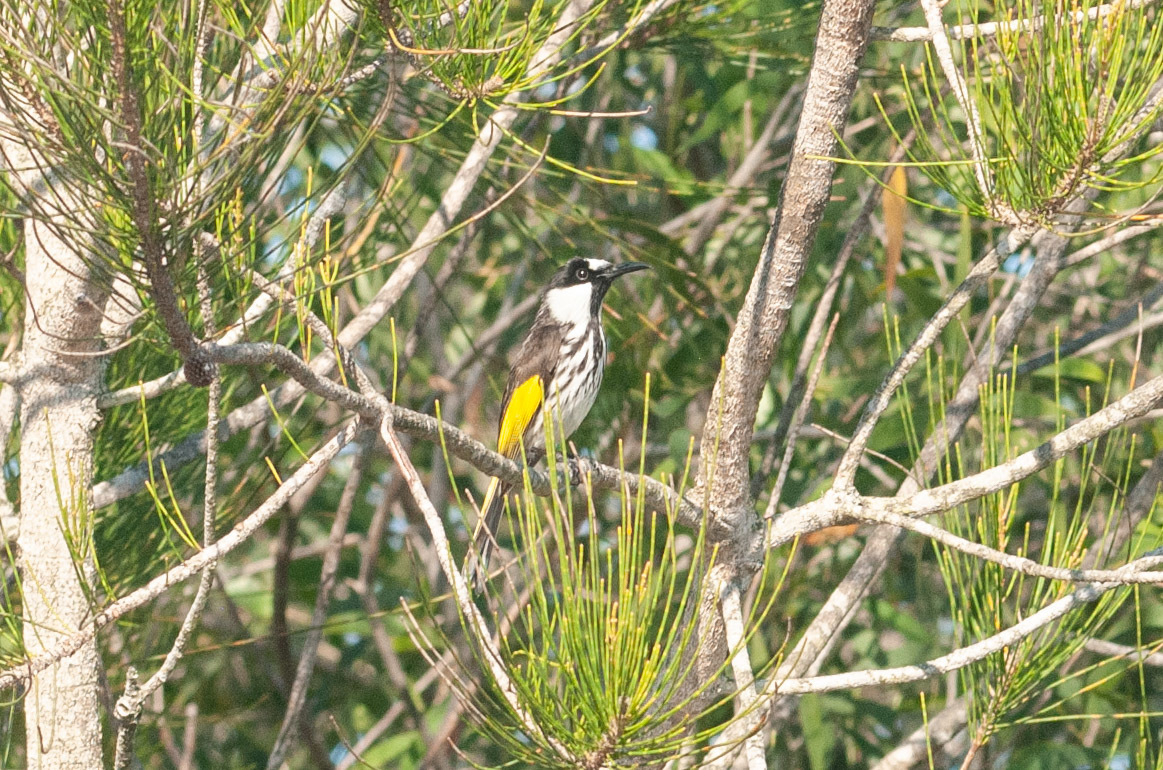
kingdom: Animalia
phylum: Chordata
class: Aves
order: Passeriformes
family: Meliphagidae
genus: Phylidonyris
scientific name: Phylidonyris niger
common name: White-cheeked honeyeater
